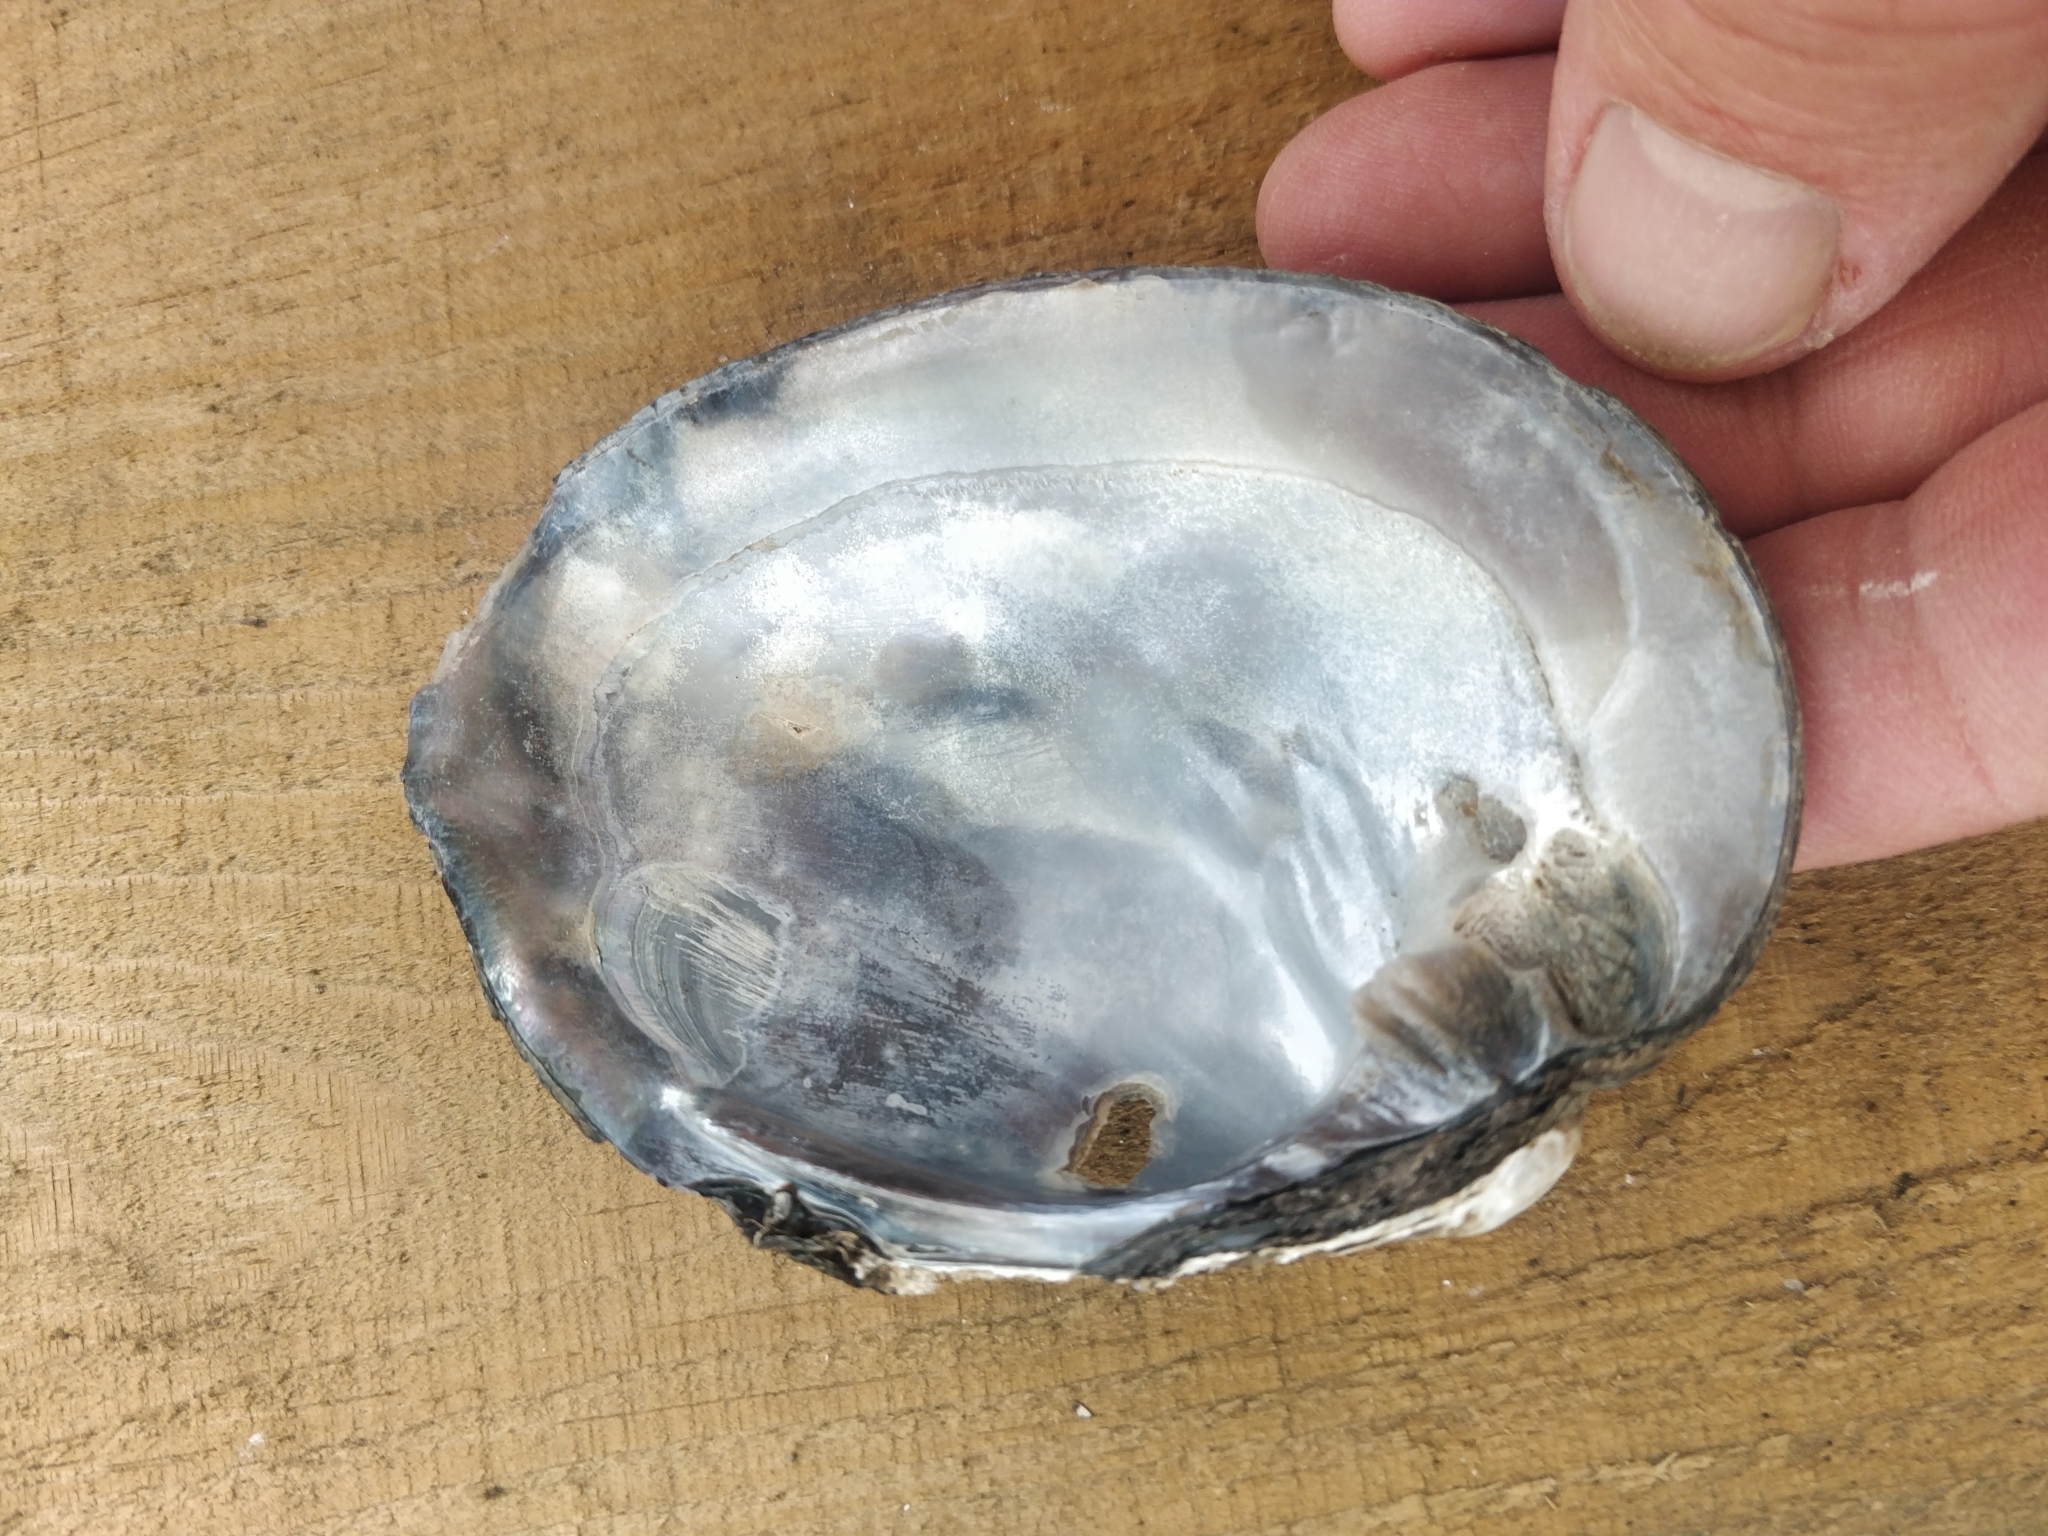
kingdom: Animalia
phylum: Mollusca
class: Bivalvia
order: Unionida
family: Unionidae
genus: Amblema
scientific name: Amblema plicata
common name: Threeridge
